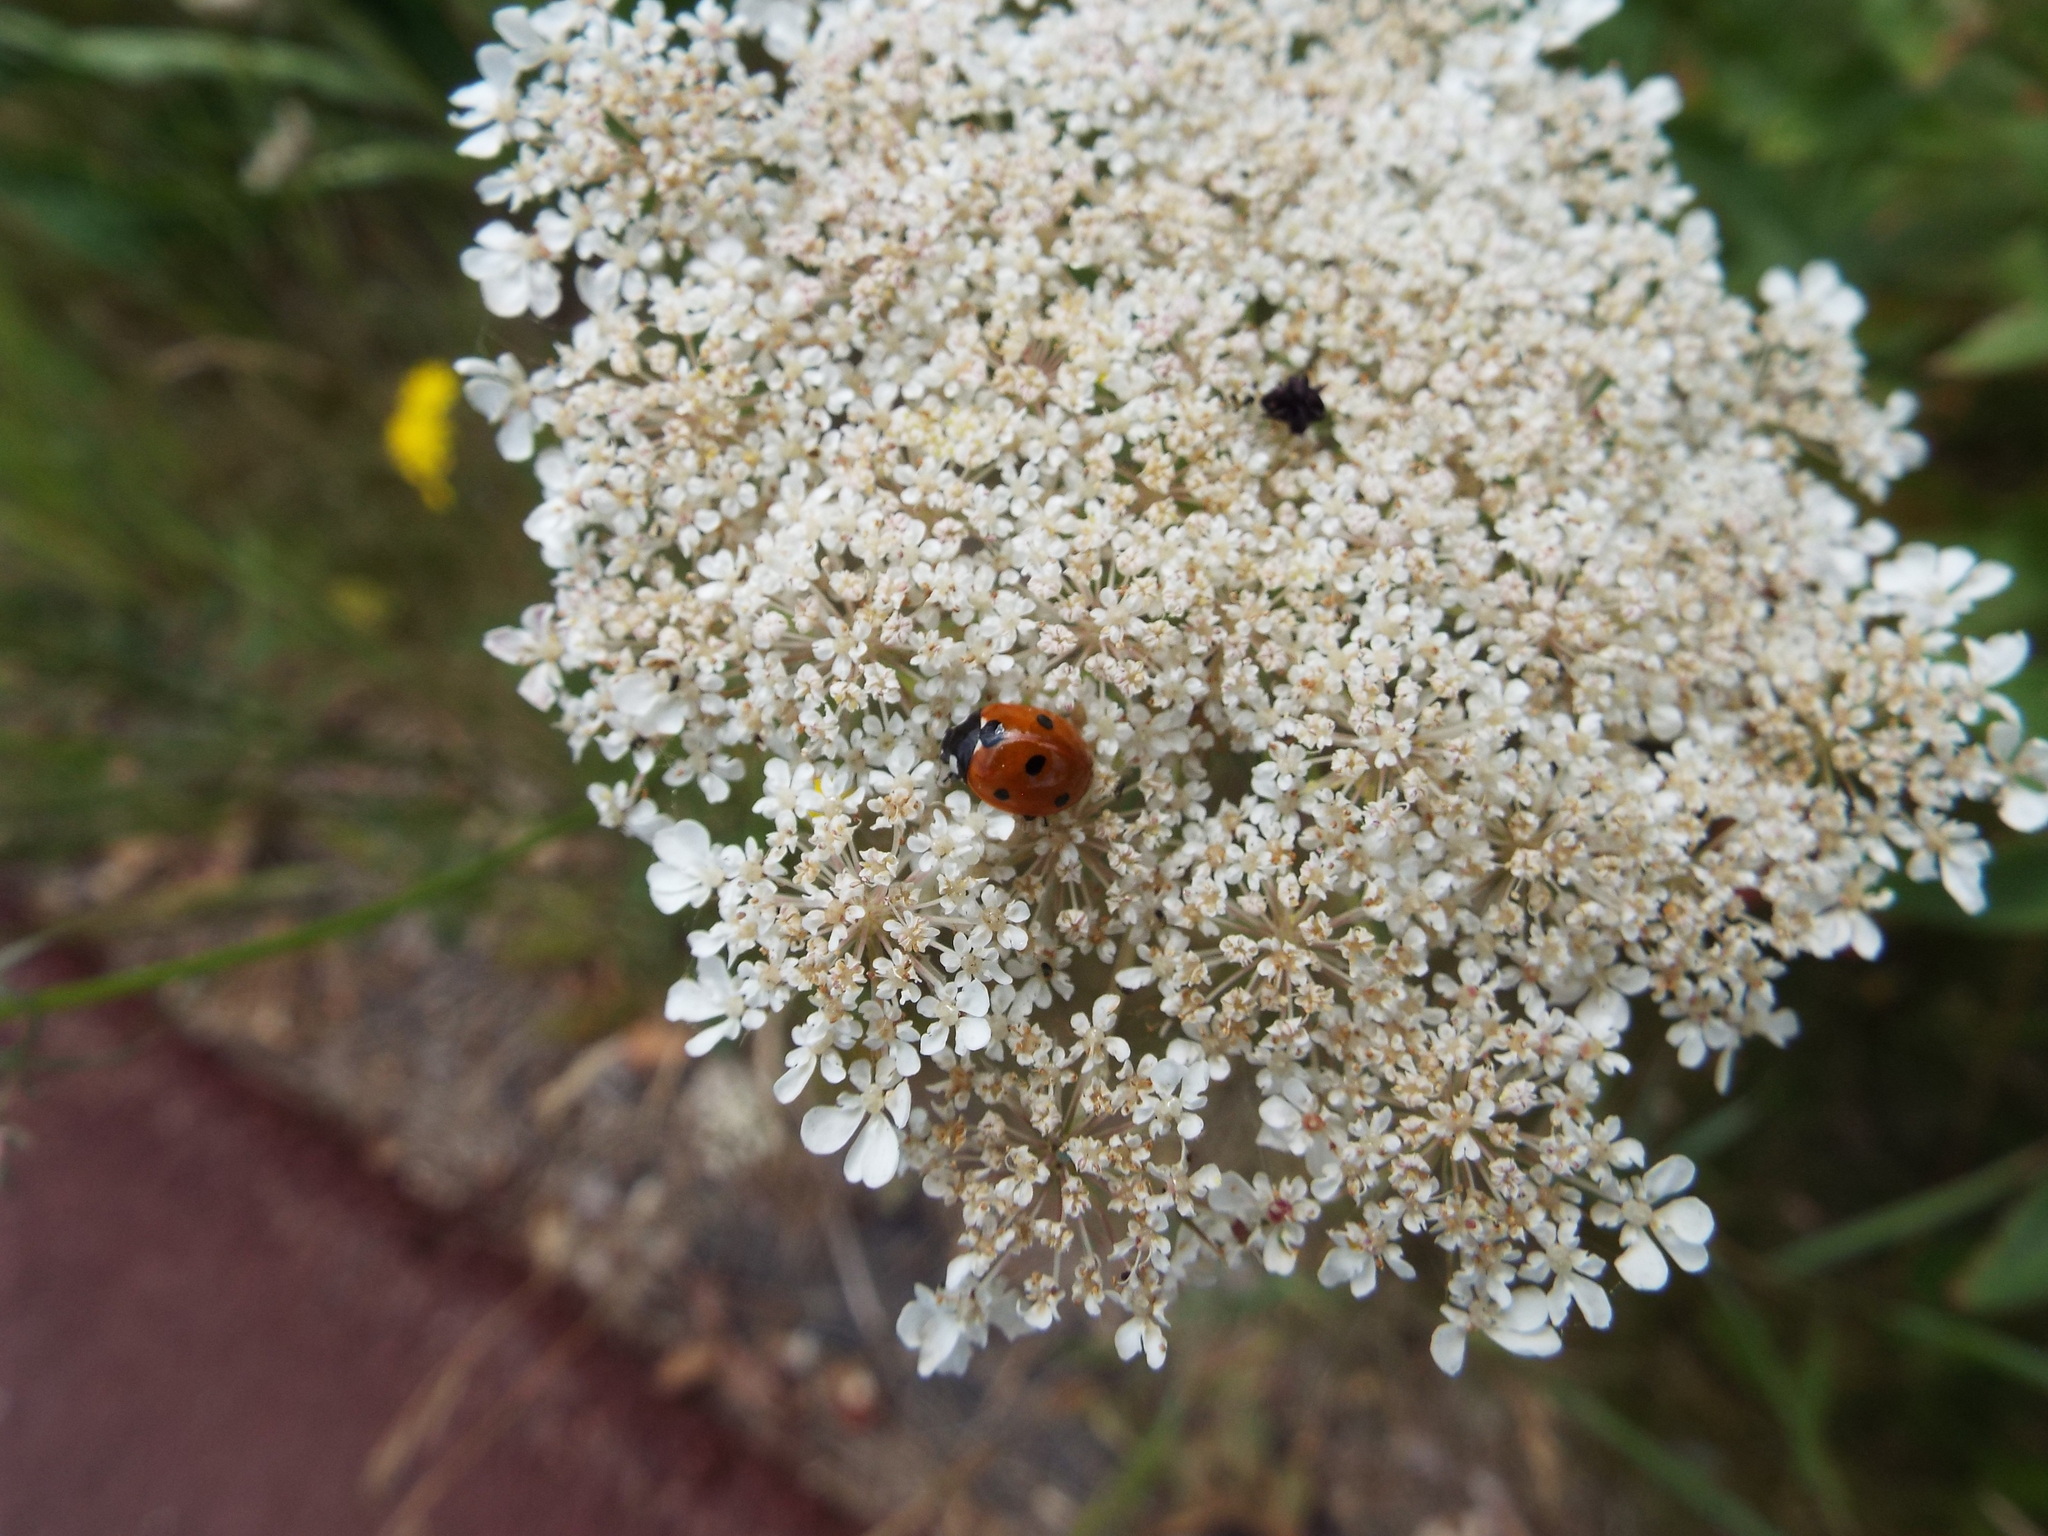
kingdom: Animalia
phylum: Arthropoda
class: Insecta
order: Coleoptera
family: Coccinellidae
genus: Coccinella
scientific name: Coccinella septempunctata
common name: Sevenspotted lady beetle
